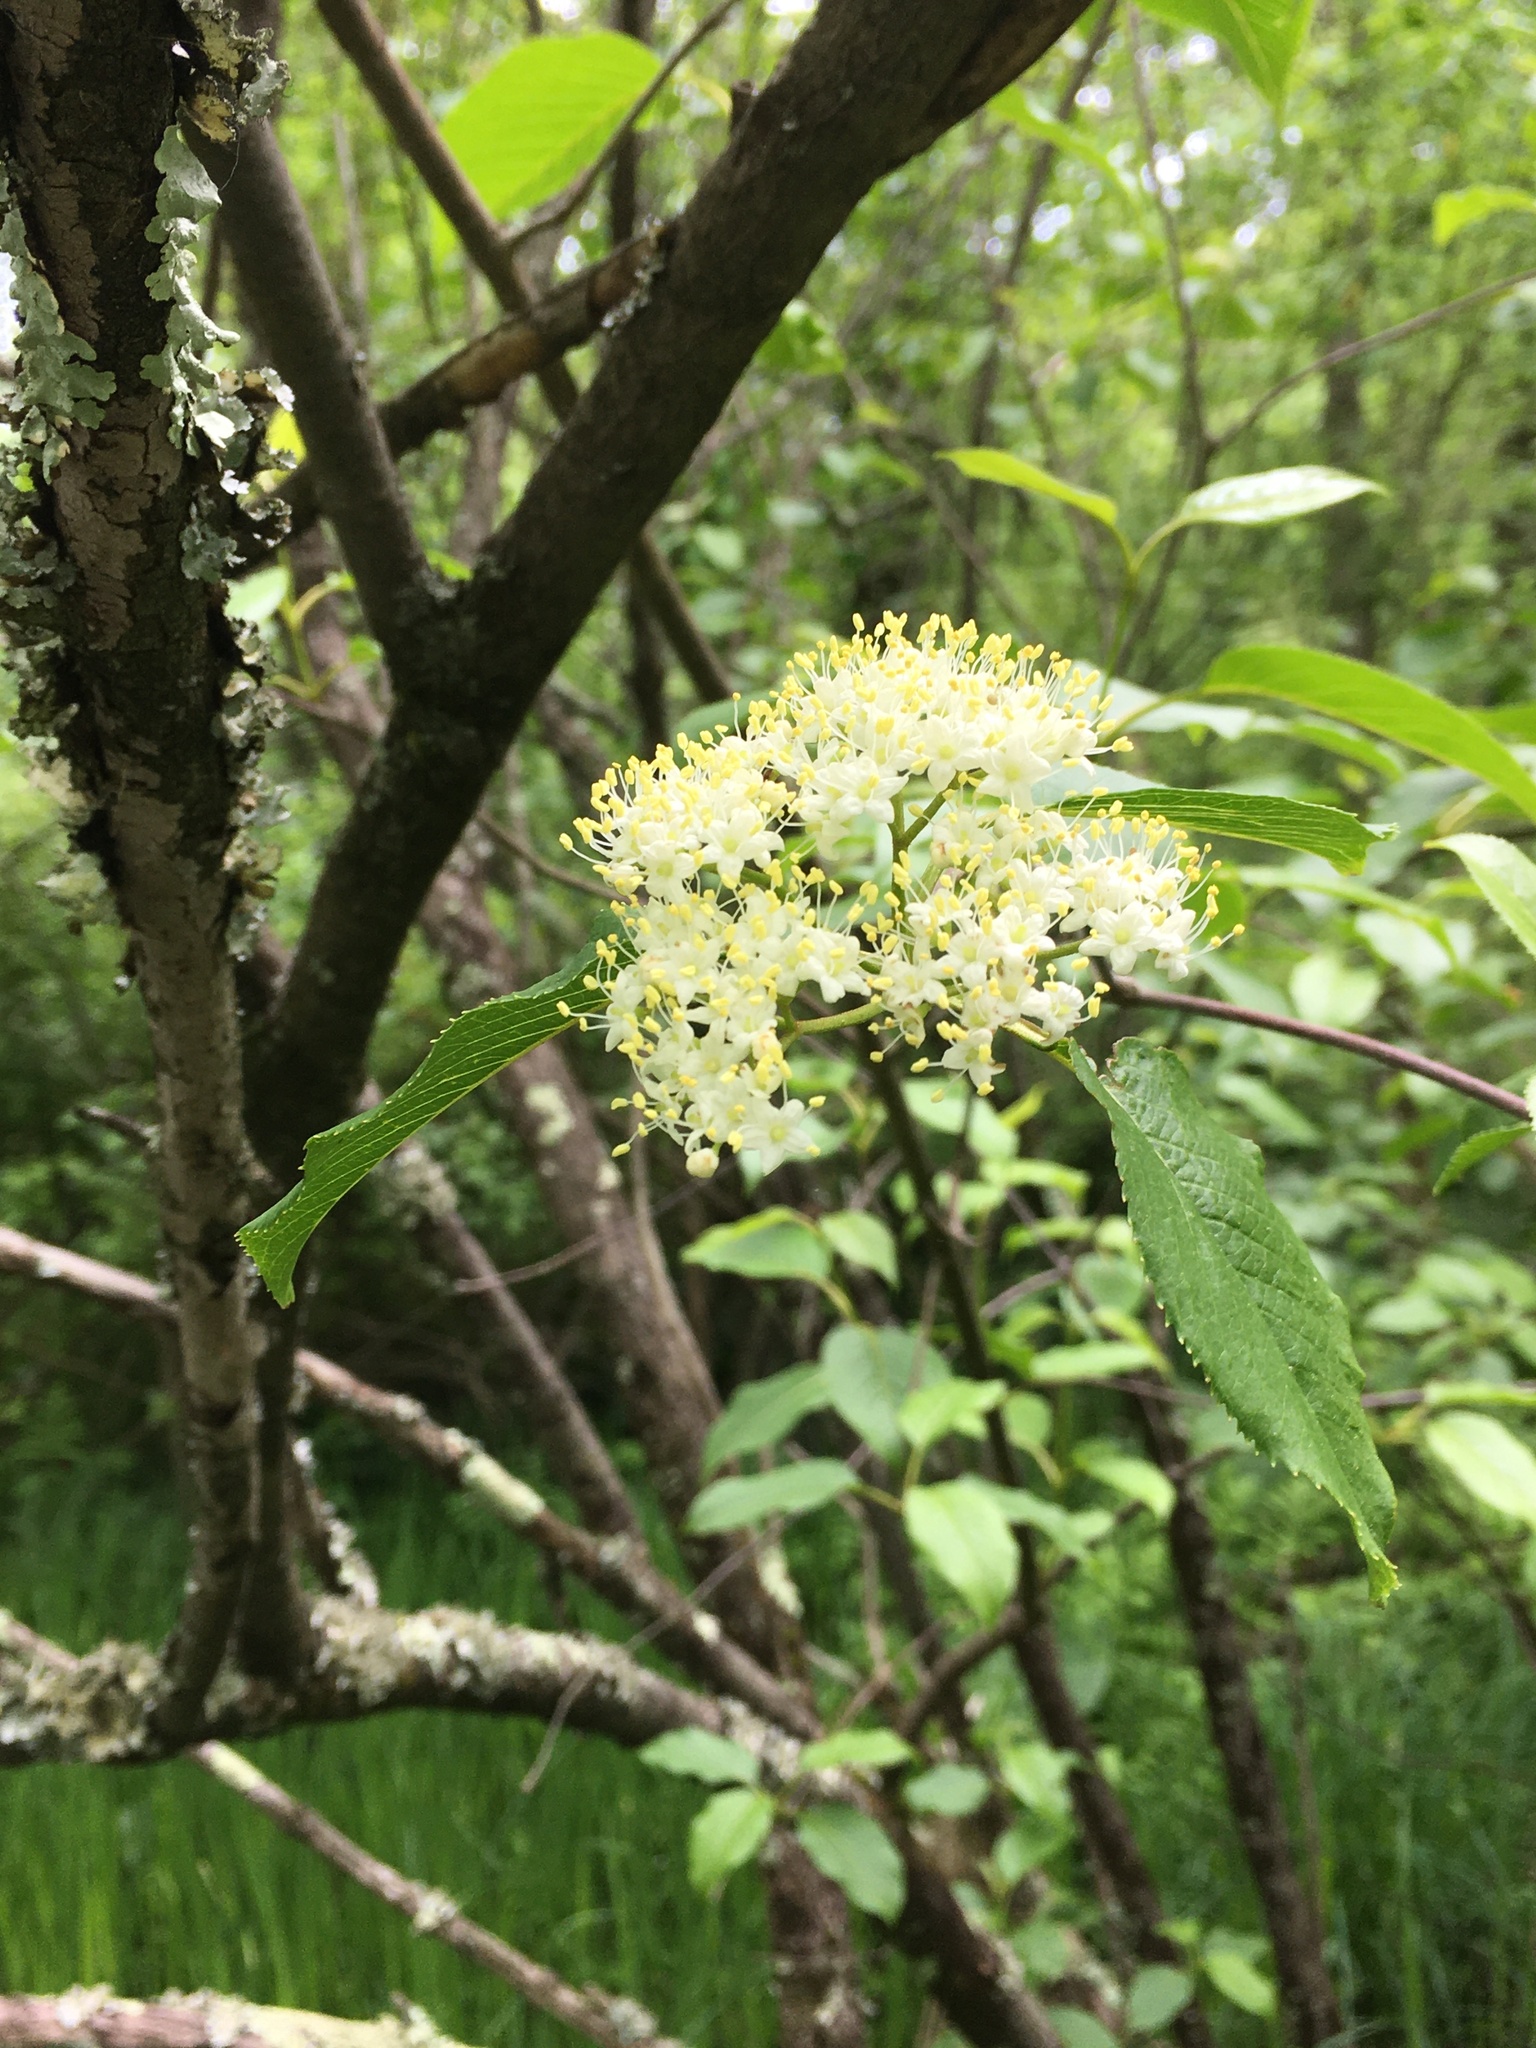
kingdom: Plantae
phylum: Tracheophyta
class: Magnoliopsida
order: Dipsacales
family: Viburnaceae
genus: Viburnum
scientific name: Viburnum lentago
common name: Black haw
